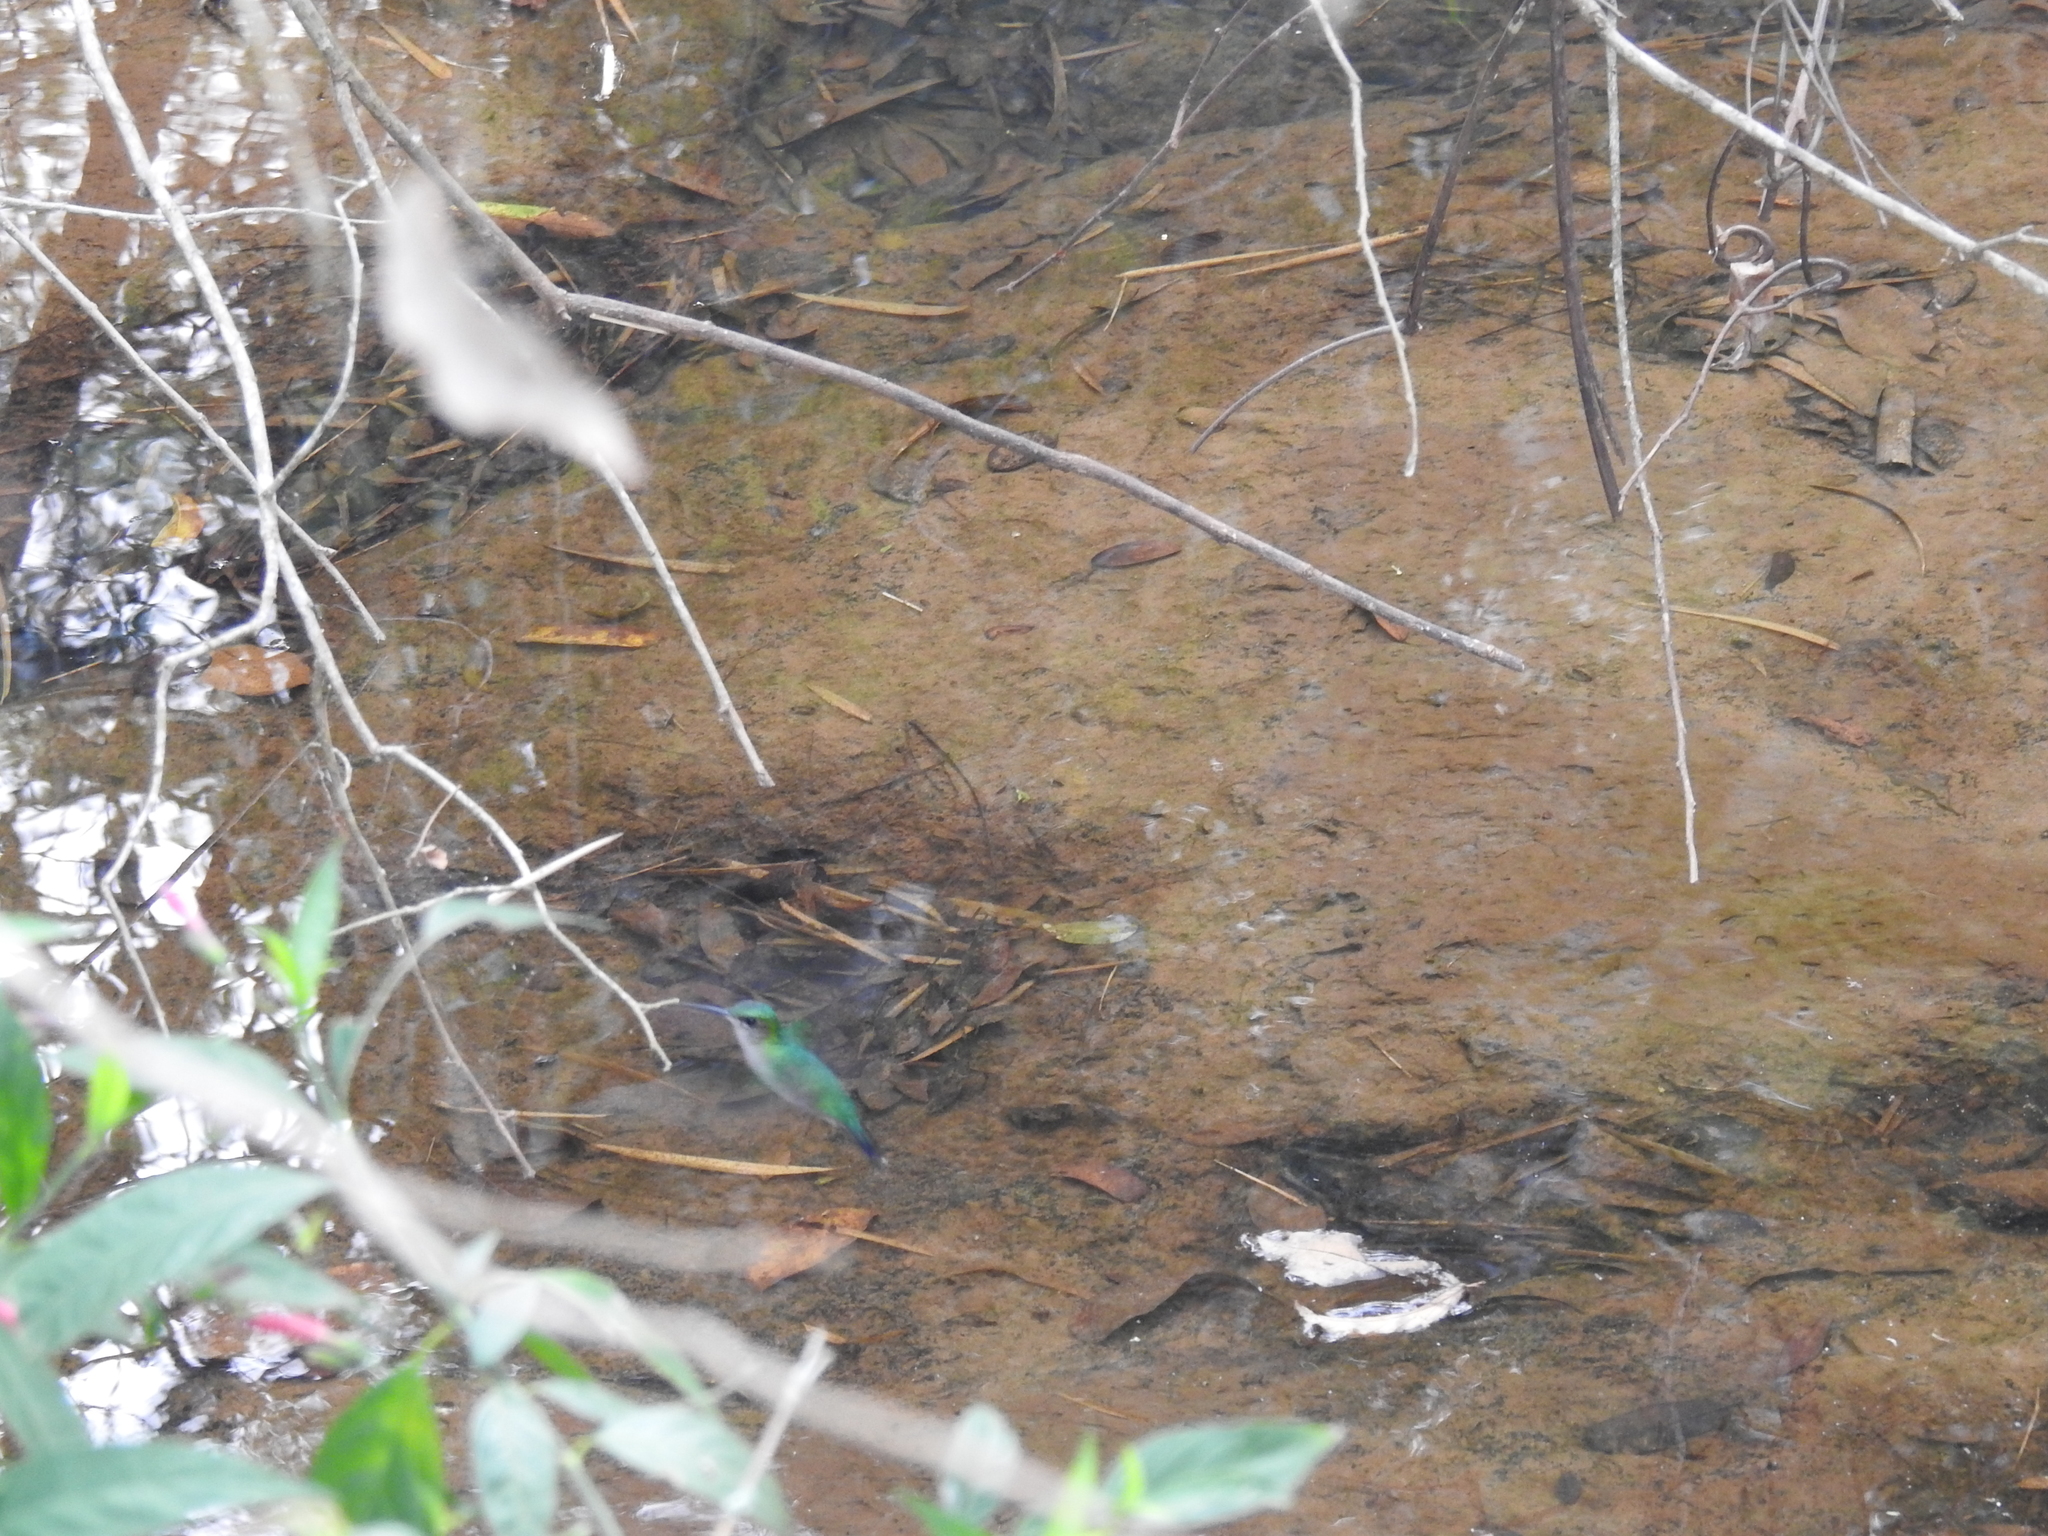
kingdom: Animalia
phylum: Chordata
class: Aves
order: Apodiformes
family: Trochilidae
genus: Thalurania
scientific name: Thalurania glaucopis
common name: Violet-capped woodnymph
